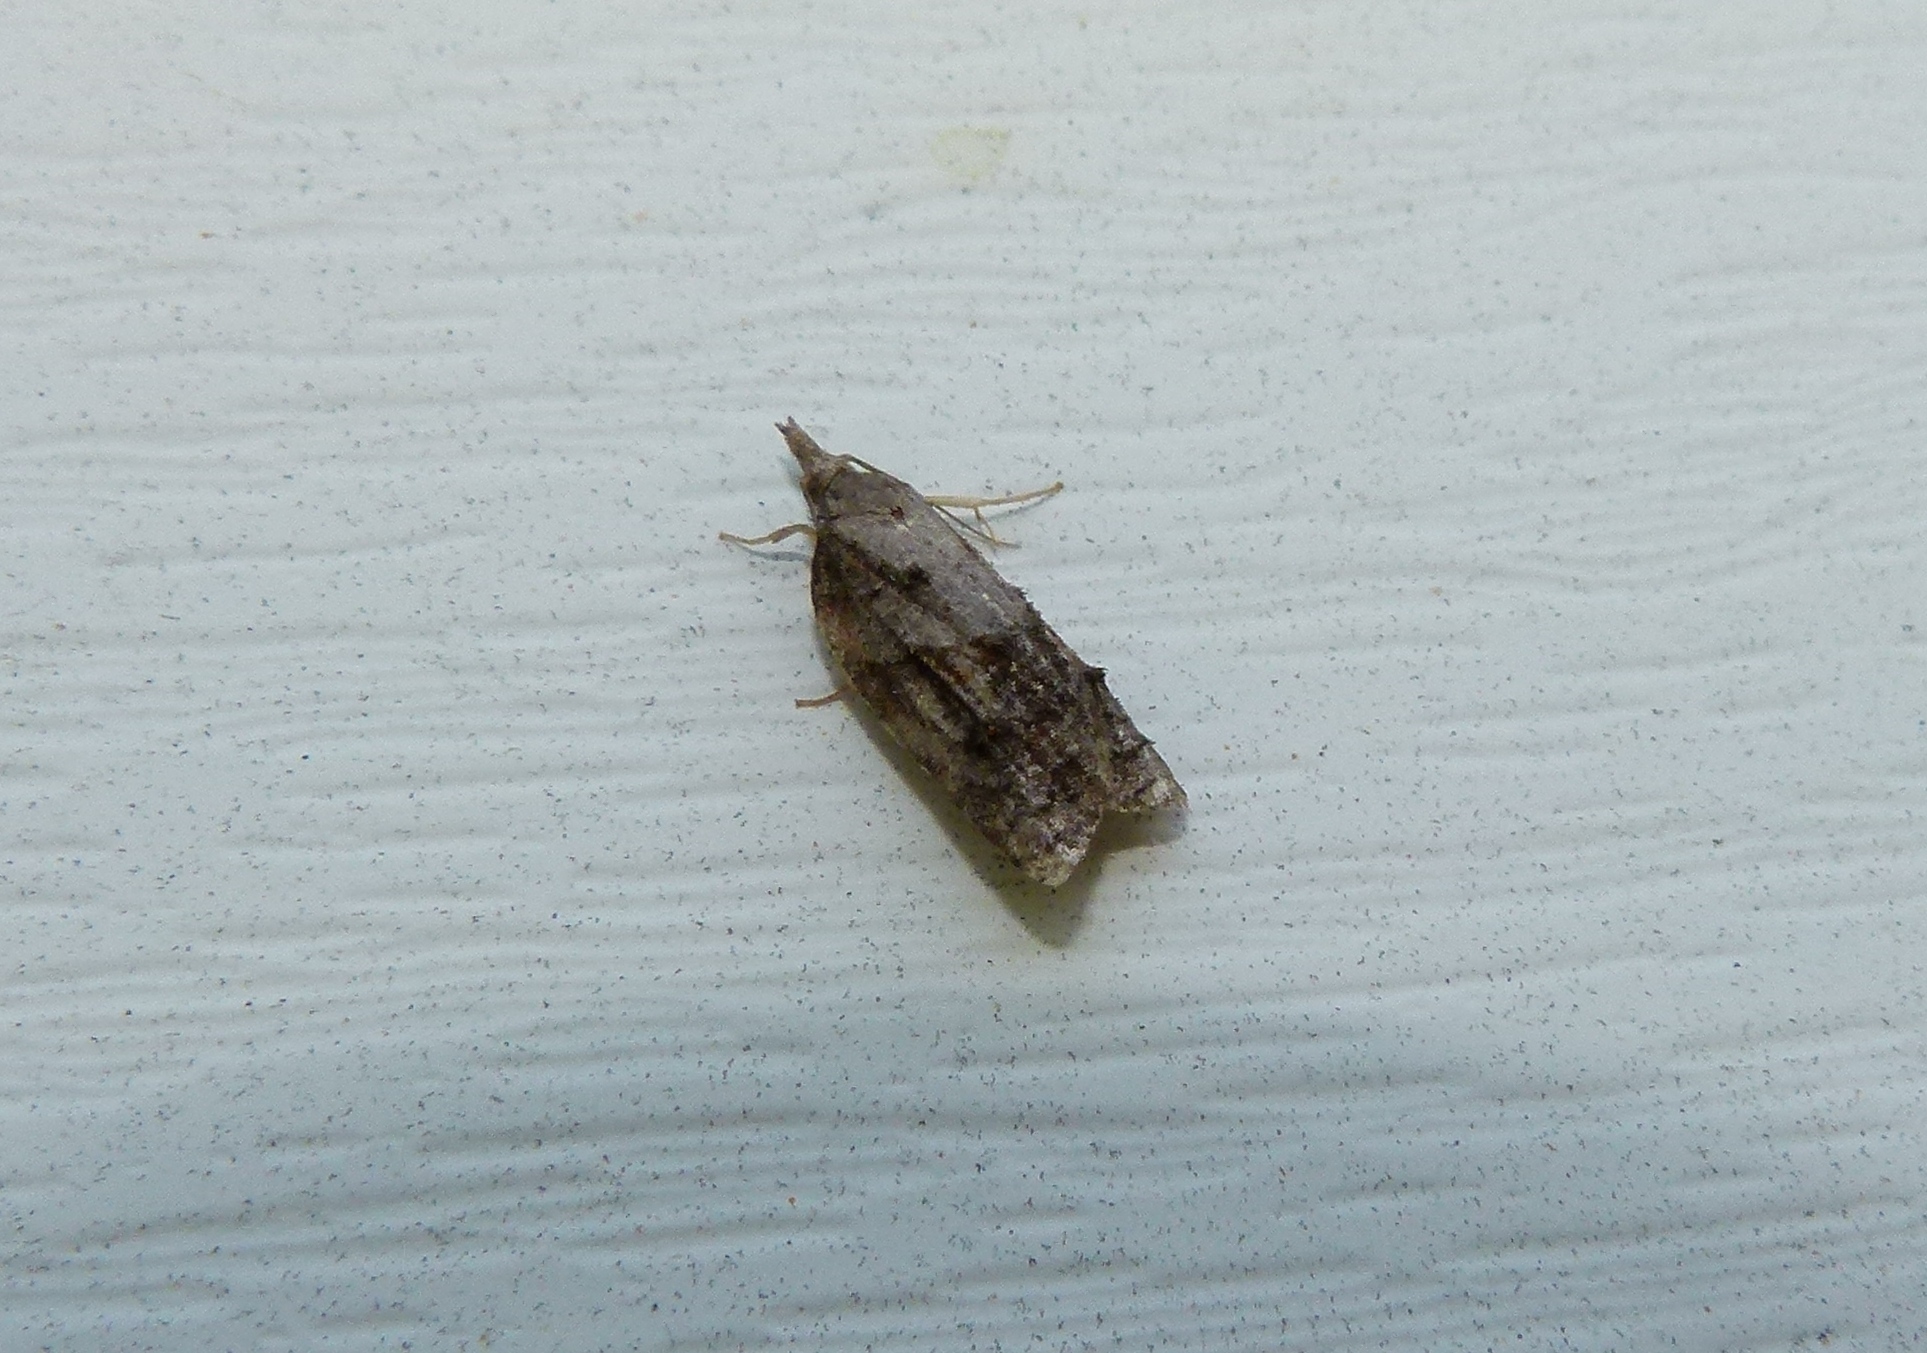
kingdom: Animalia
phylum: Arthropoda
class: Insecta
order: Lepidoptera
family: Tortricidae
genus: Platynota
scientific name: Platynota idaeusalis
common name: Tufted apple bud moth
